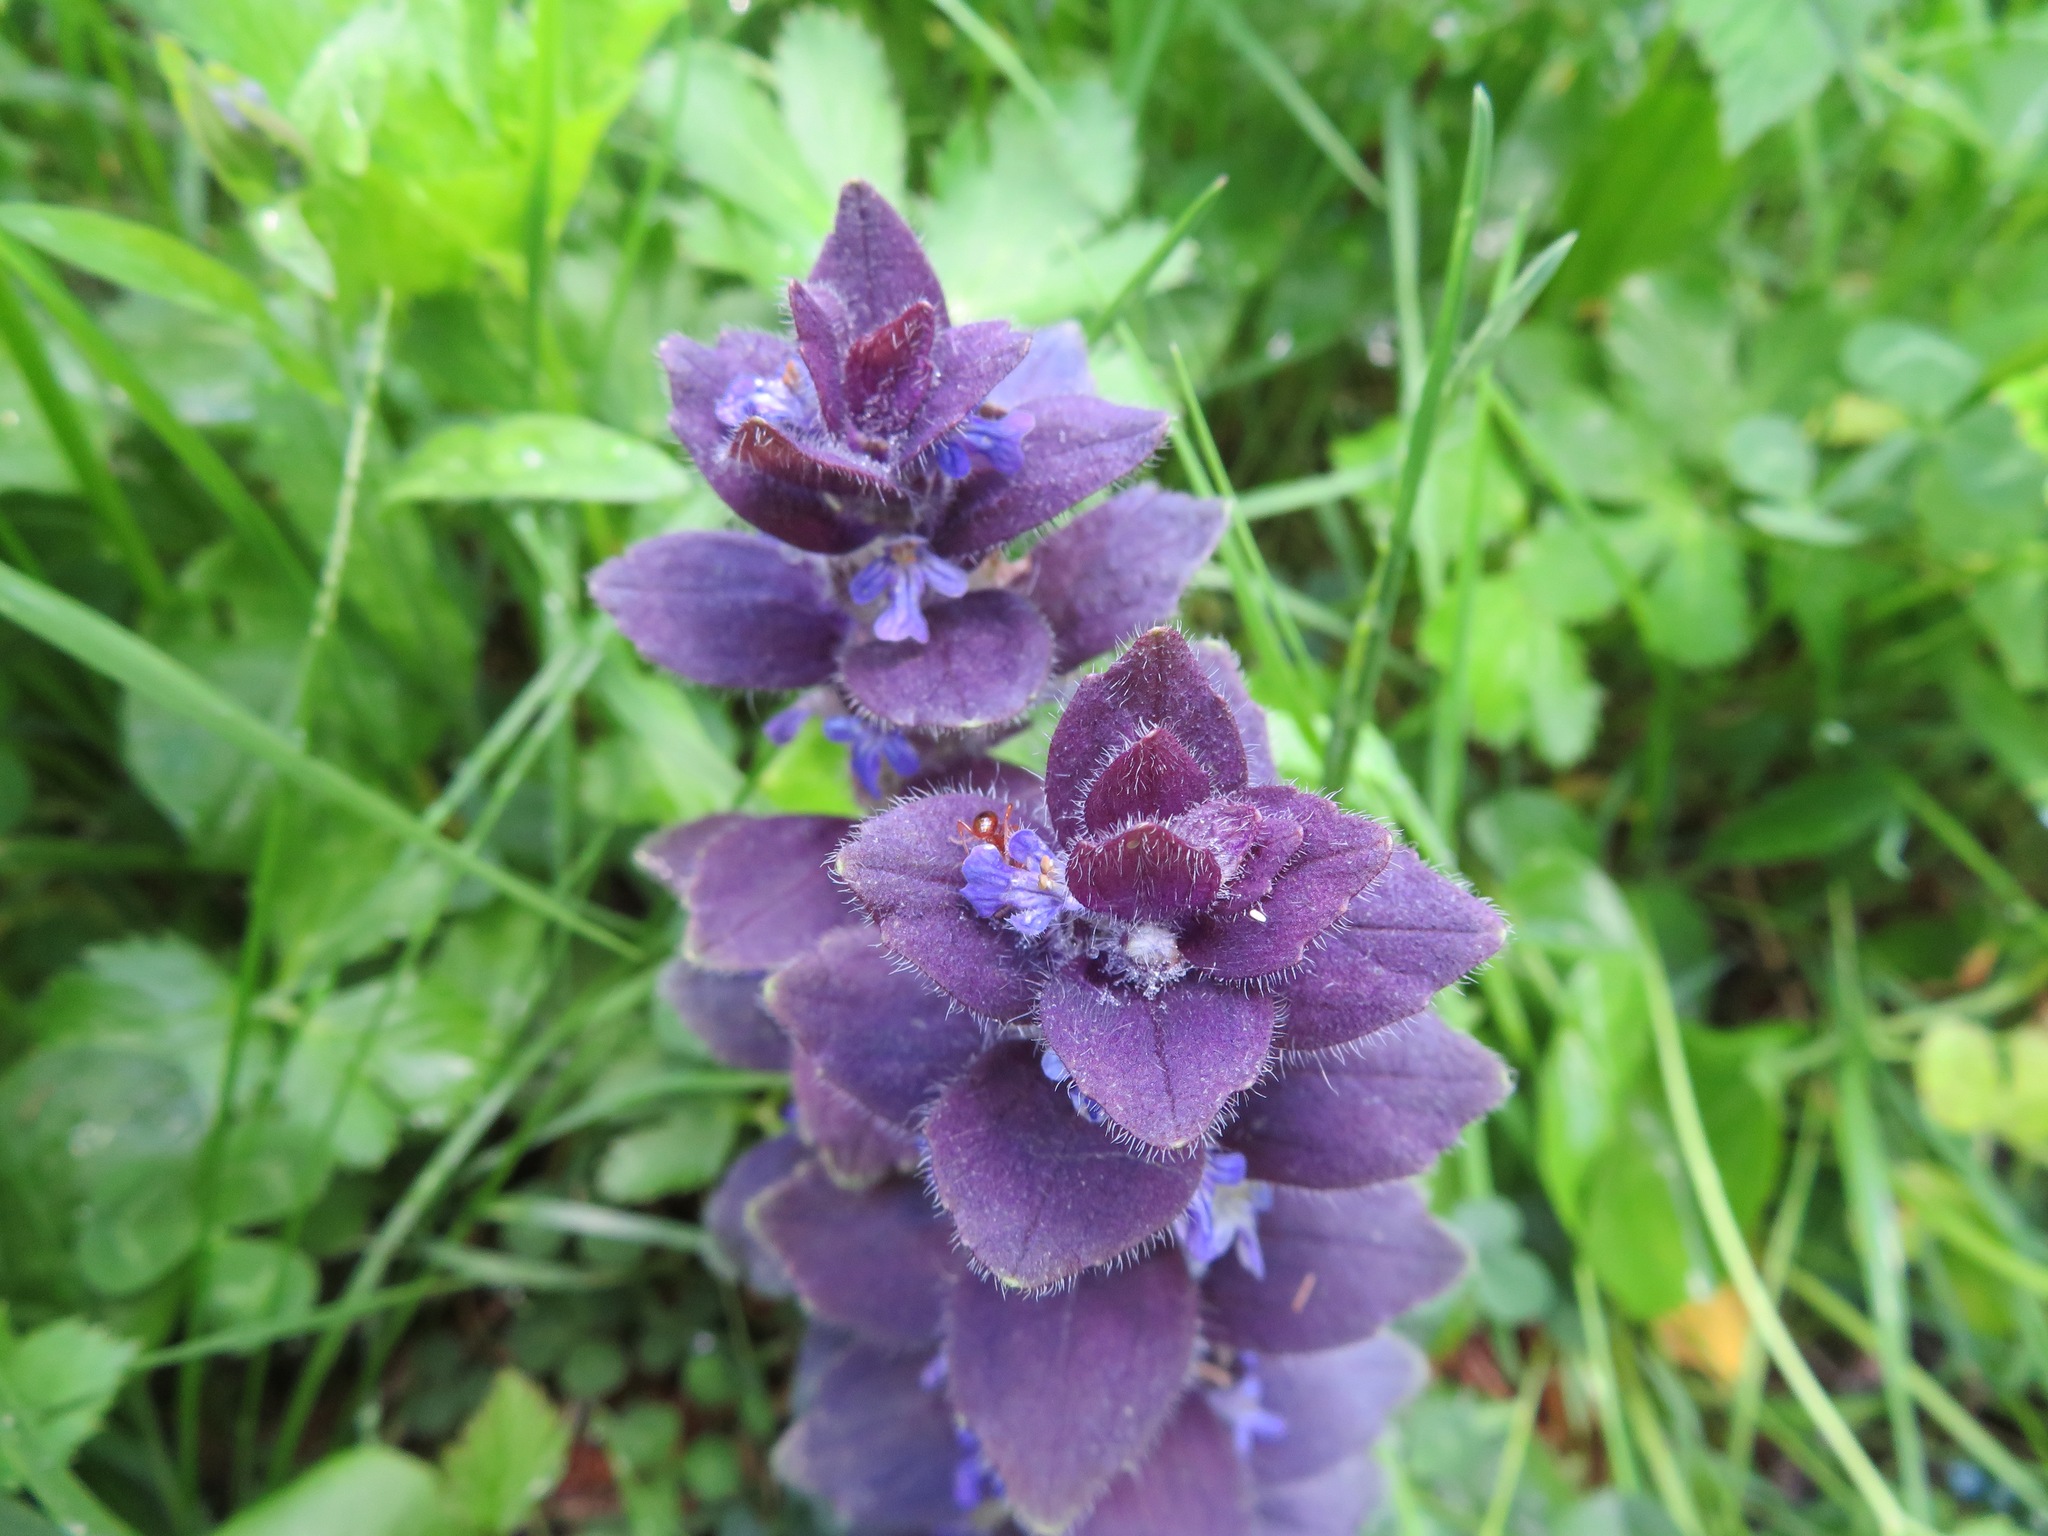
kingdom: Plantae
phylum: Tracheophyta
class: Magnoliopsida
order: Lamiales
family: Lamiaceae
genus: Ajuga
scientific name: Ajuga pyramidalis
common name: Pyramid bugle
